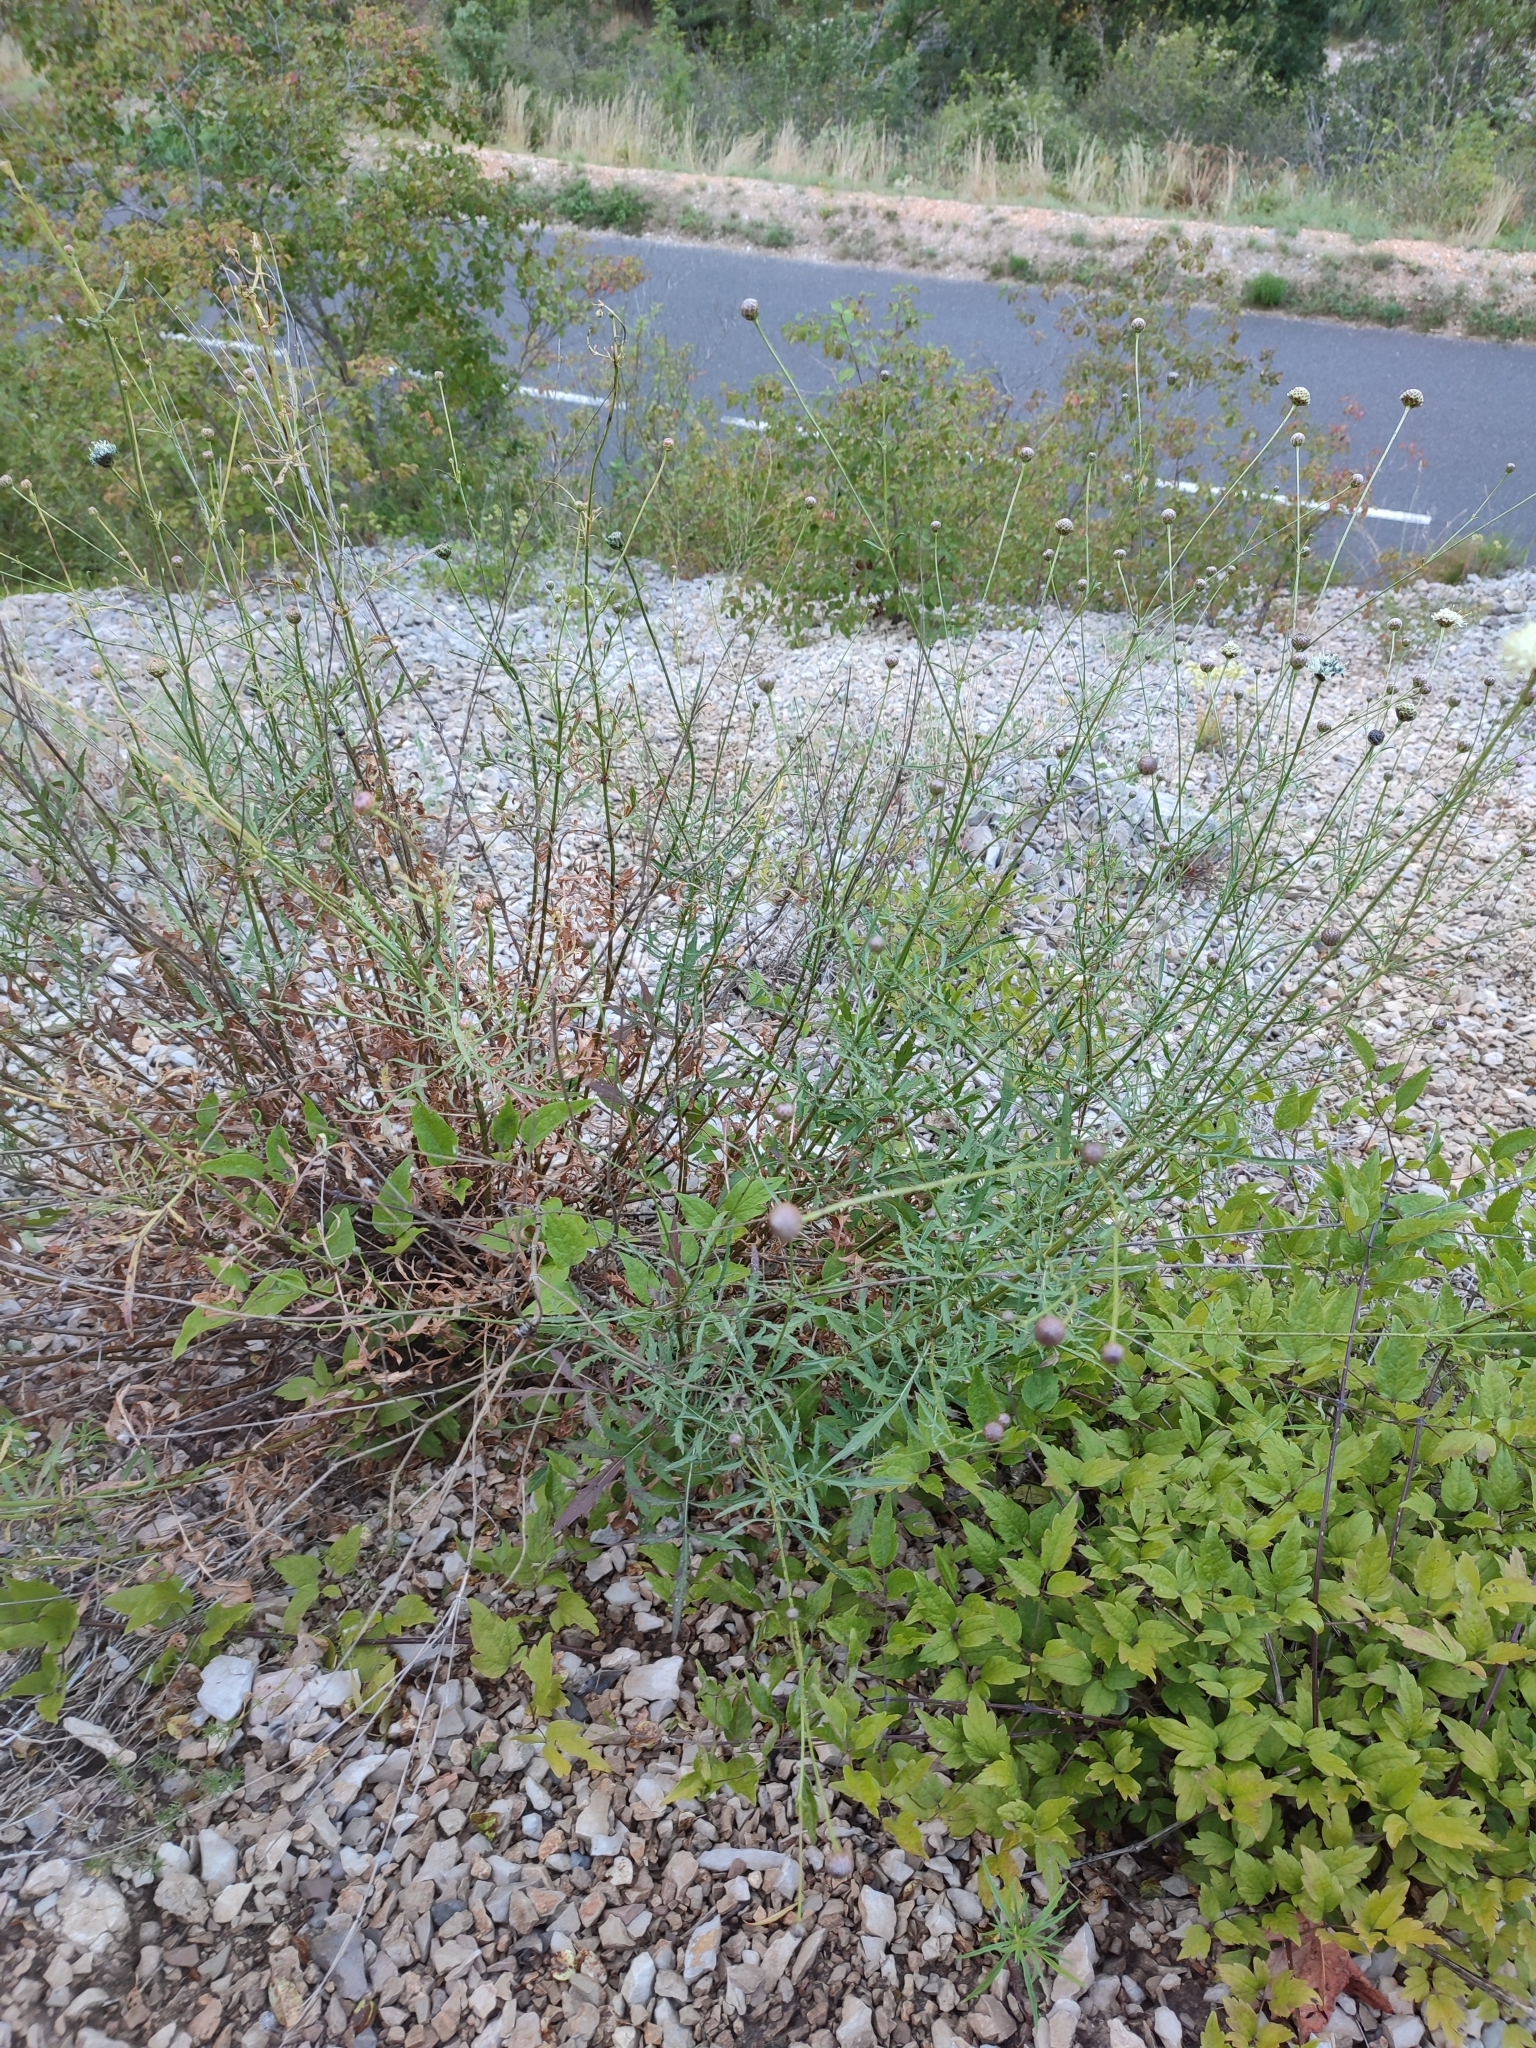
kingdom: Plantae
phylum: Tracheophyta
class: Magnoliopsida
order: Dipsacales
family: Caprifoliaceae
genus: Cephalaria
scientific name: Cephalaria leucantha
